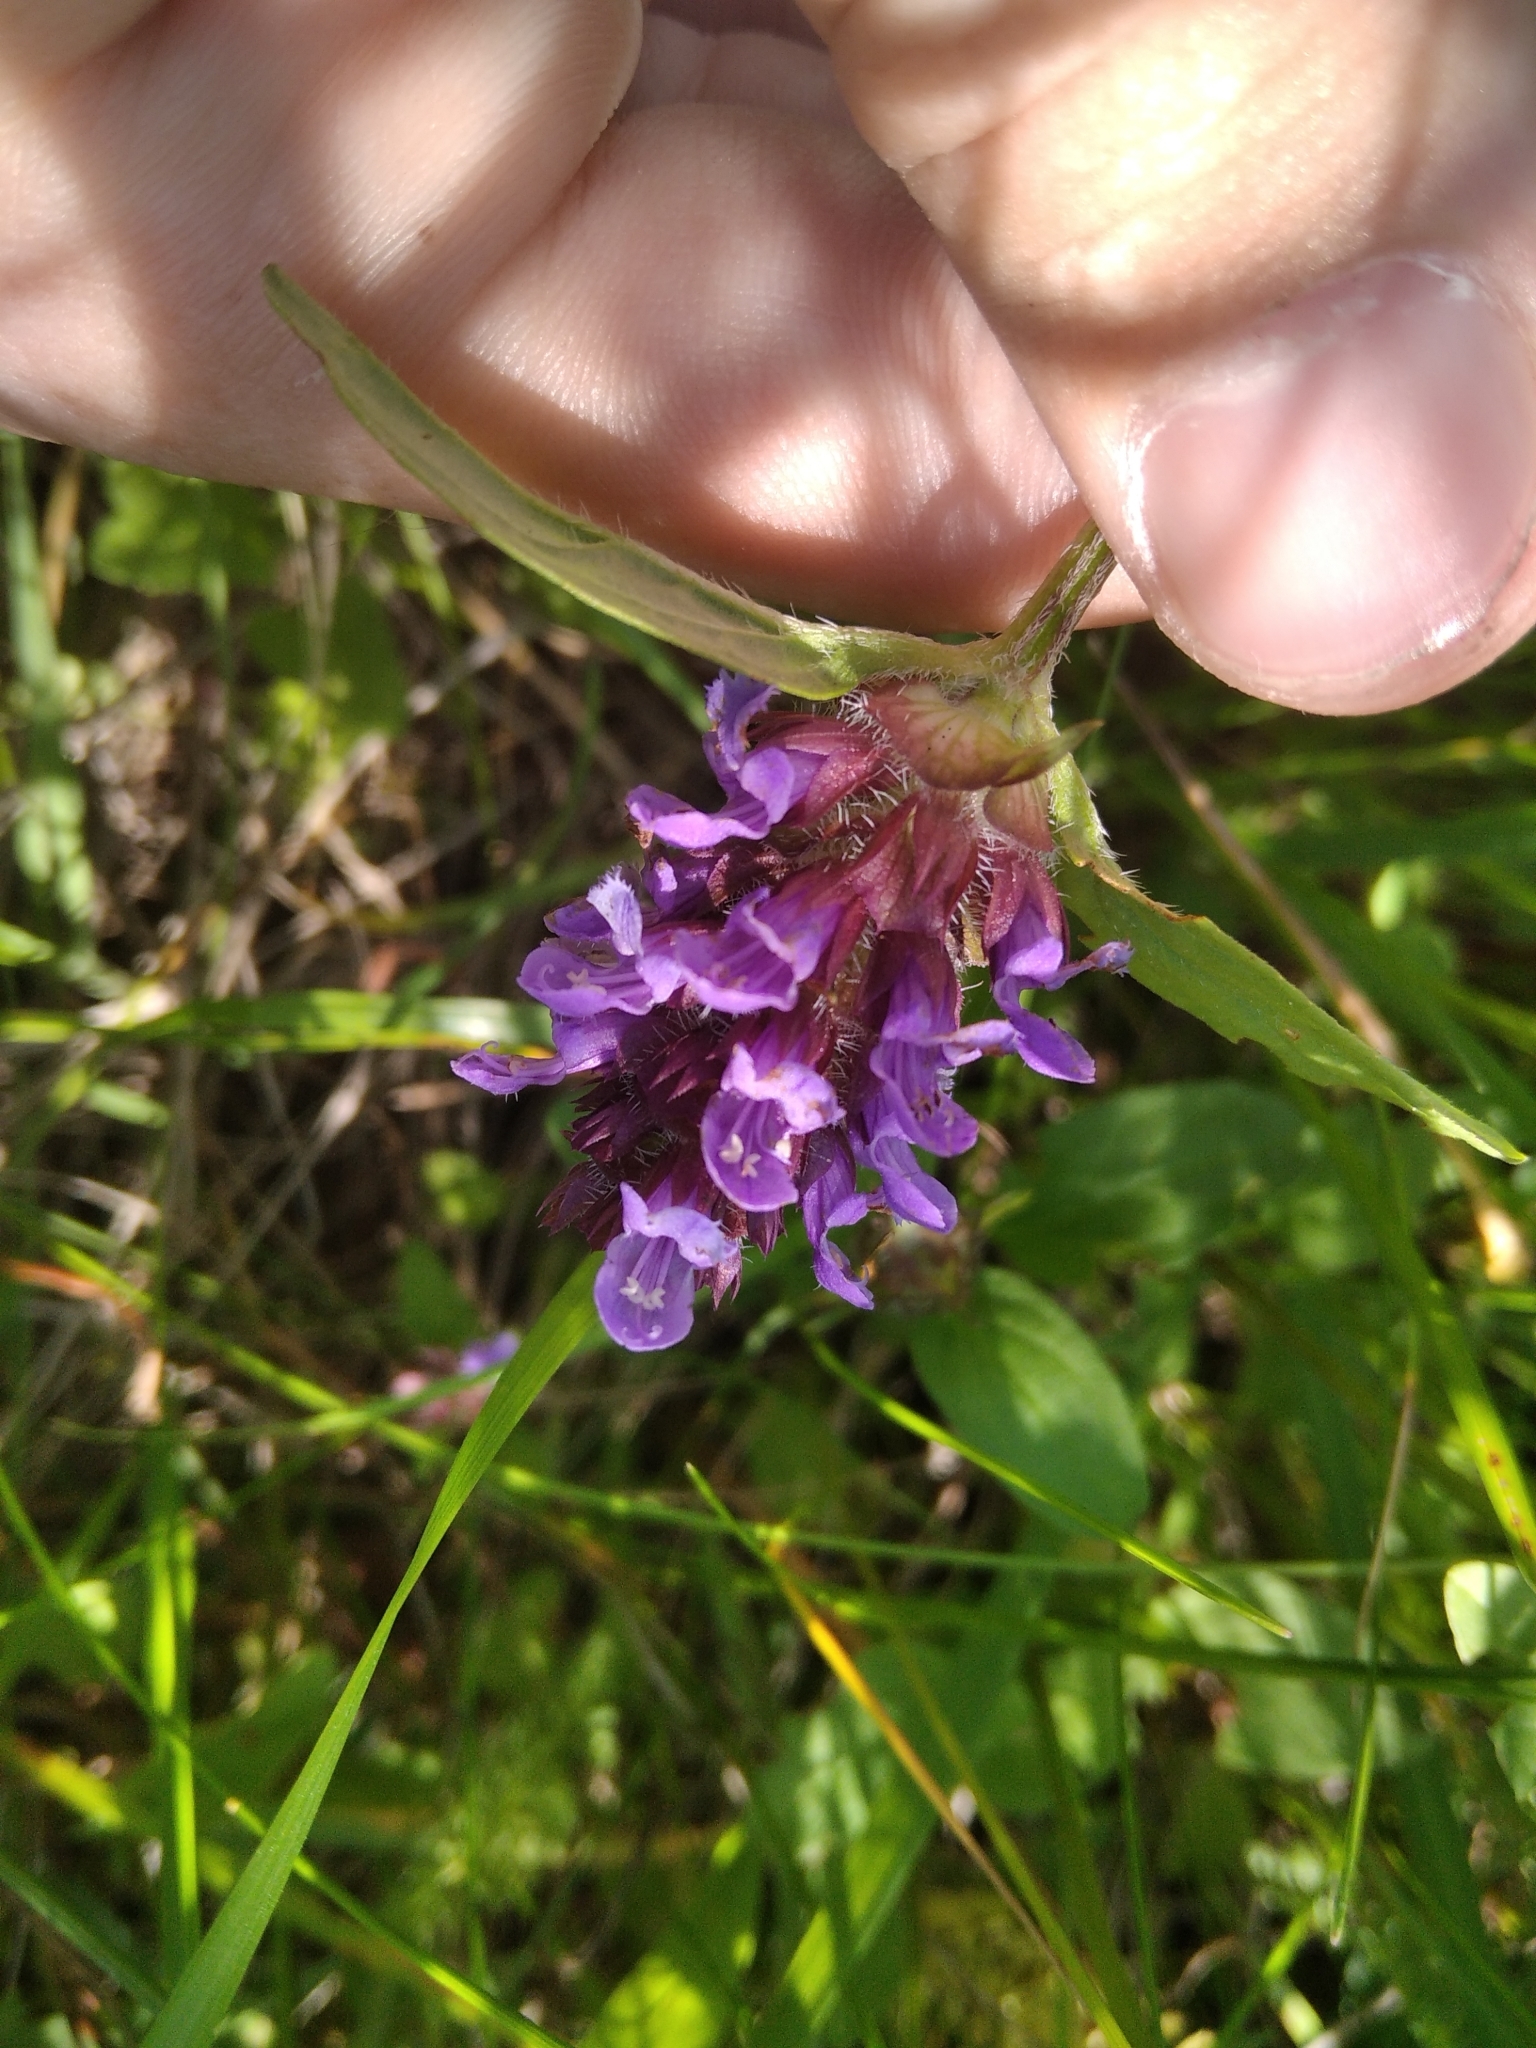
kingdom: Plantae
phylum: Tracheophyta
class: Magnoliopsida
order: Lamiales
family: Lamiaceae
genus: Prunella
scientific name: Prunella vulgaris
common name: Heal-all
